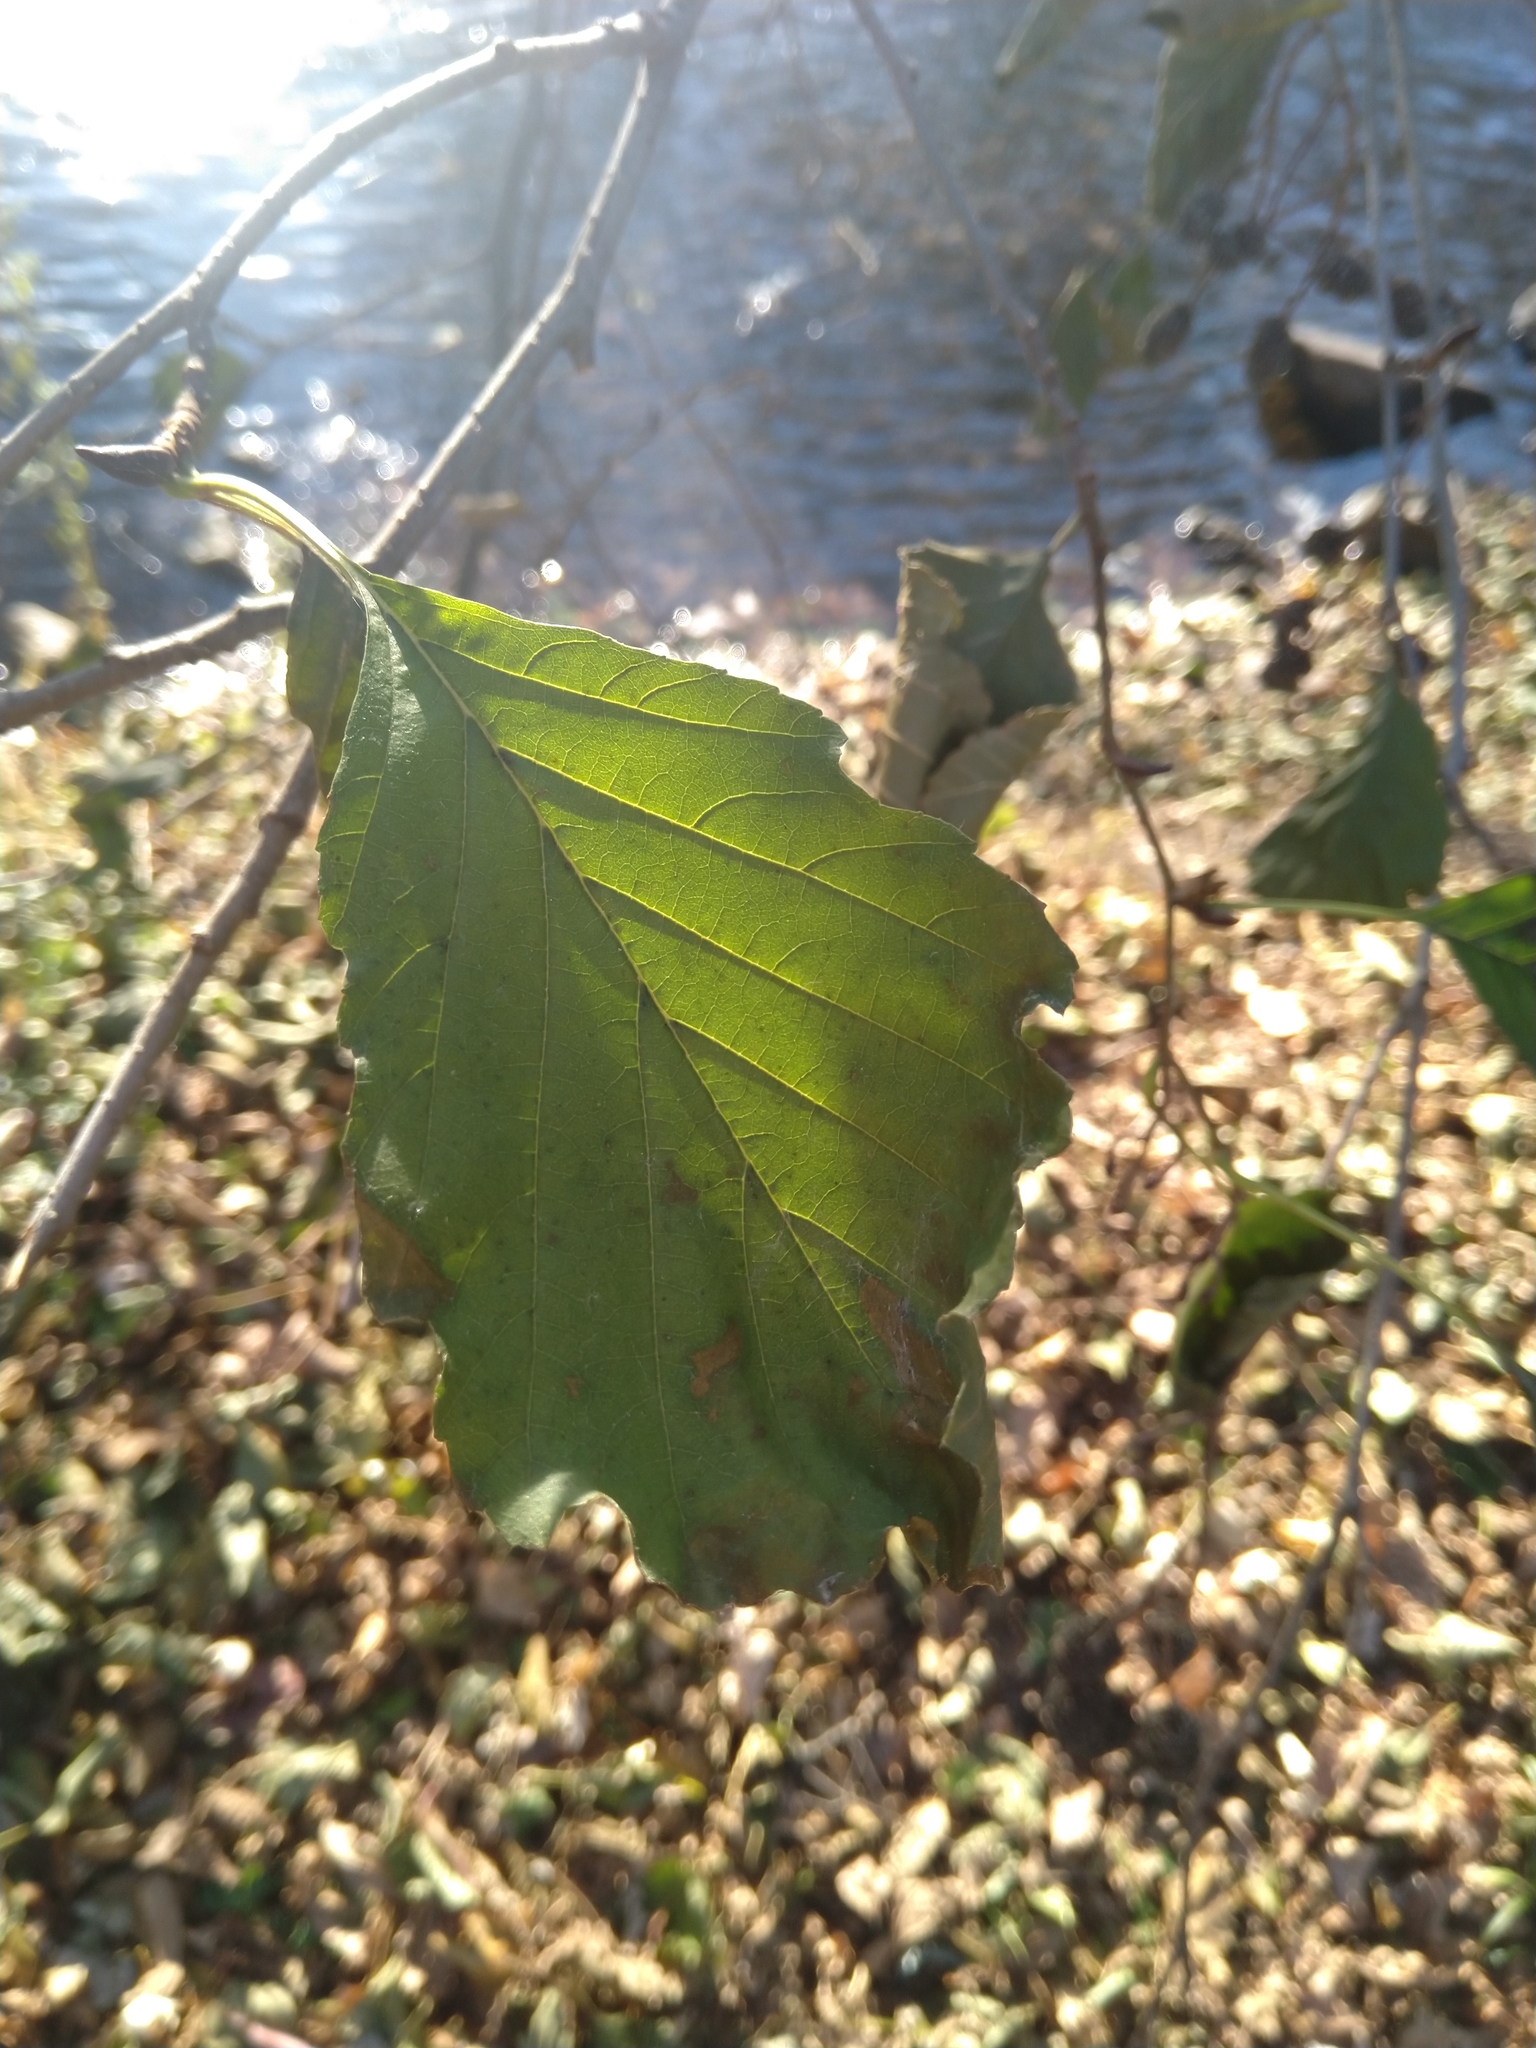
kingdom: Plantae
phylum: Tracheophyta
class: Magnoliopsida
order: Fagales
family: Betulaceae
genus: Alnus
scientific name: Alnus glutinosa
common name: Black alder
